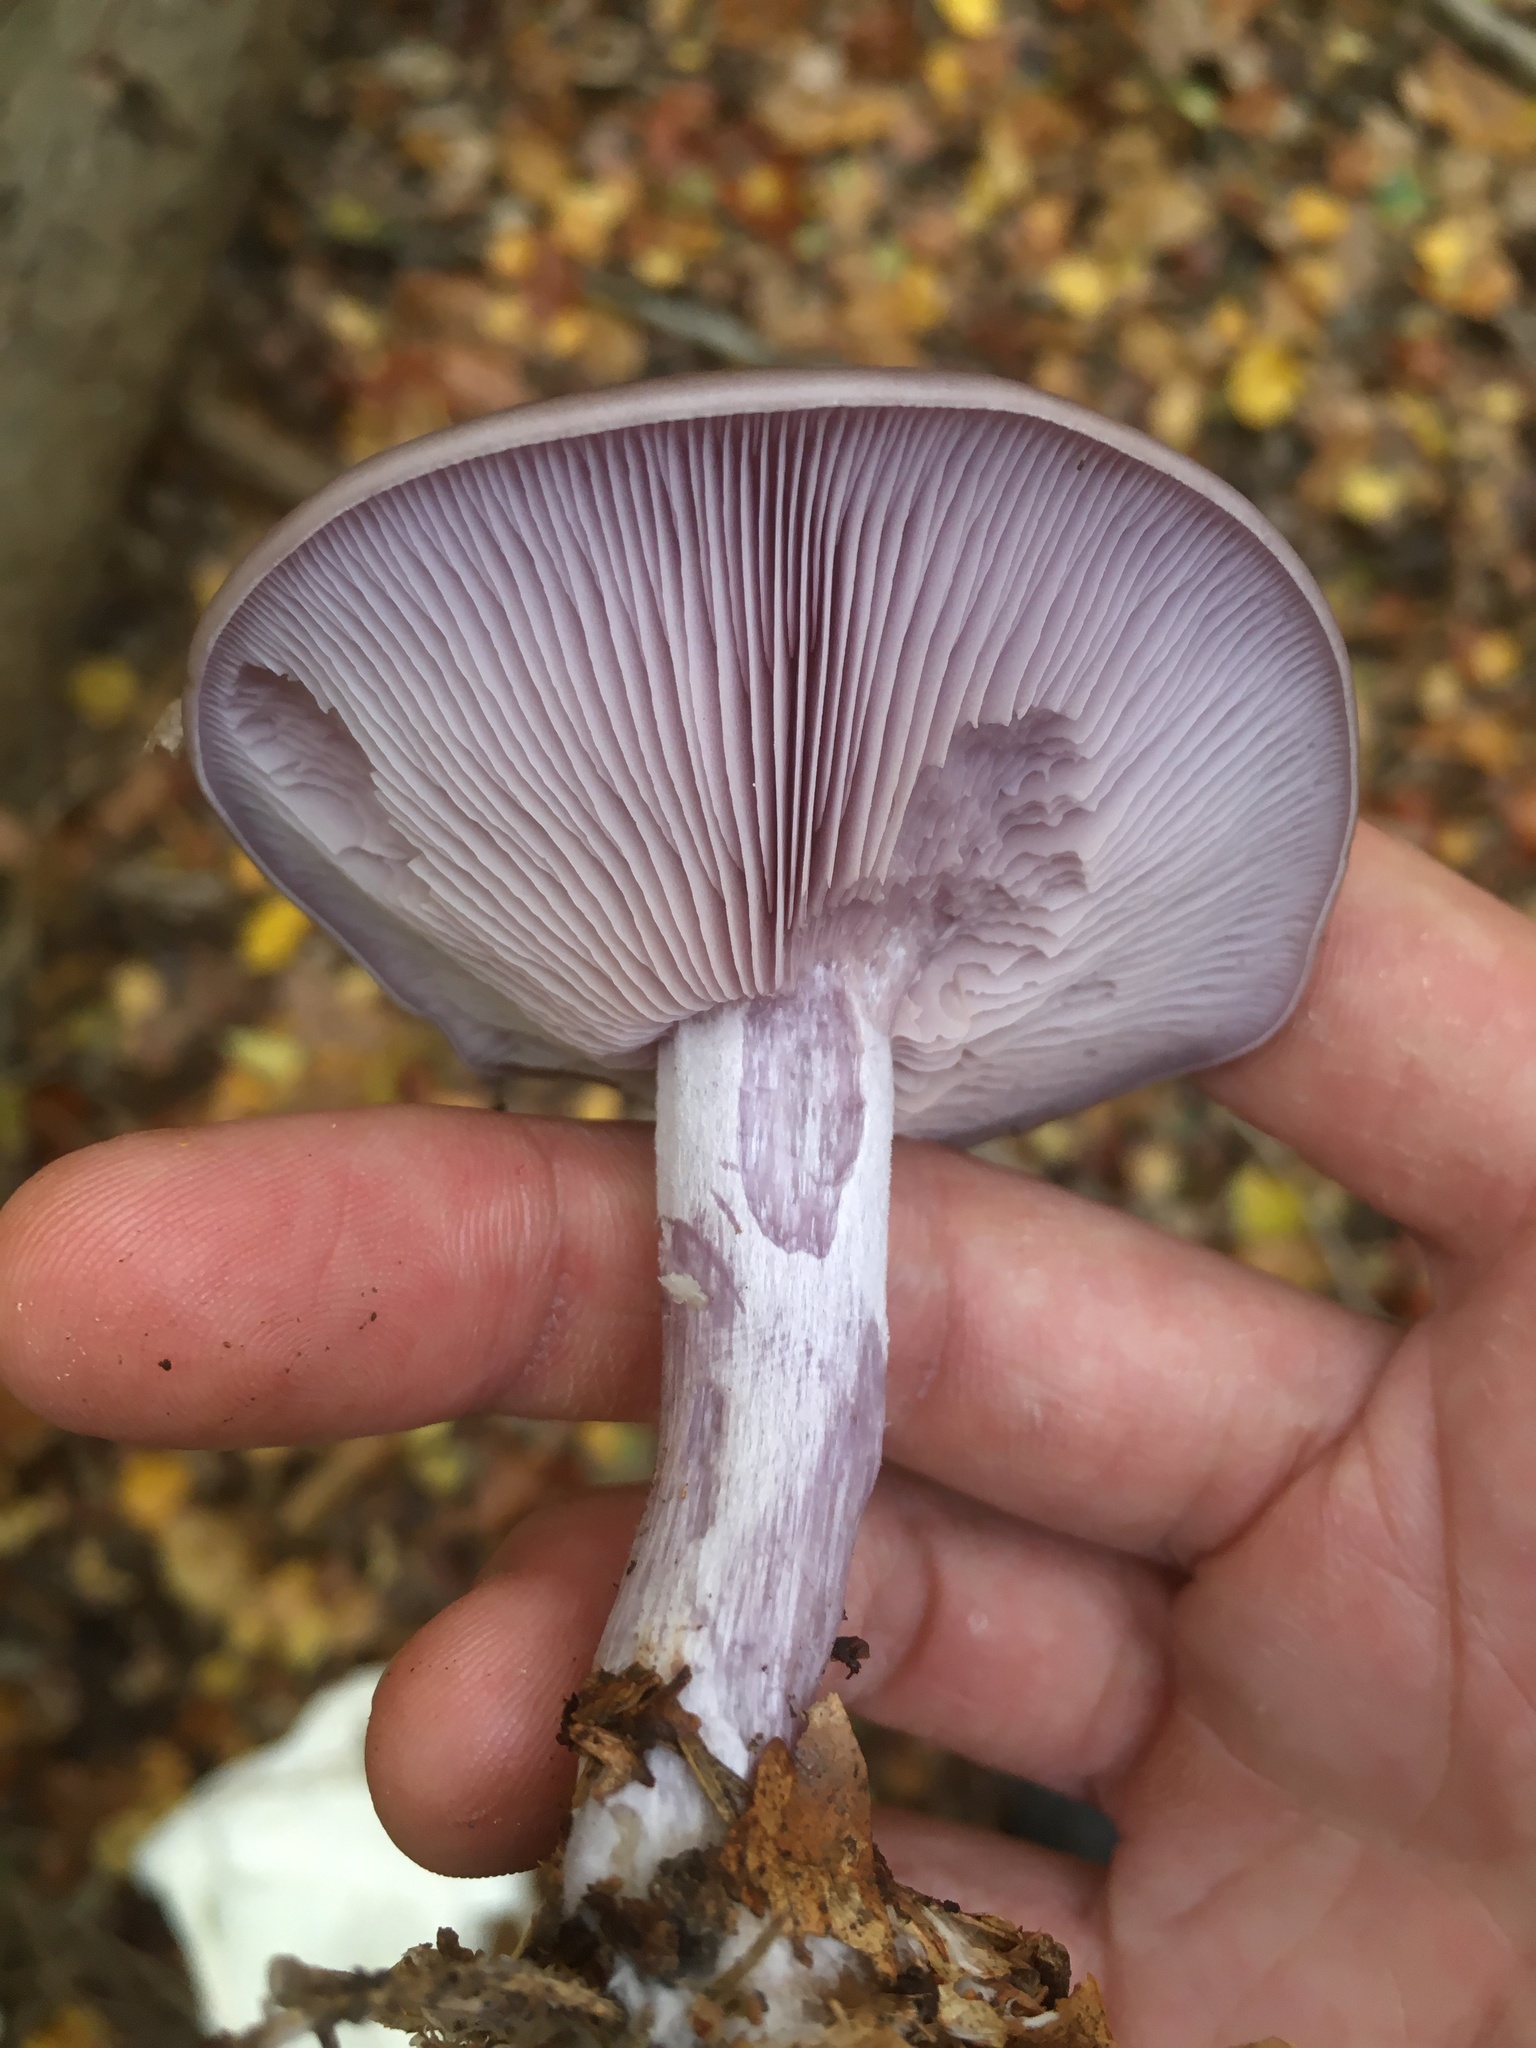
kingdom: Fungi
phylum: Basidiomycota
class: Agaricomycetes
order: Agaricales
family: Tricholomataceae
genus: Collybia
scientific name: Collybia
